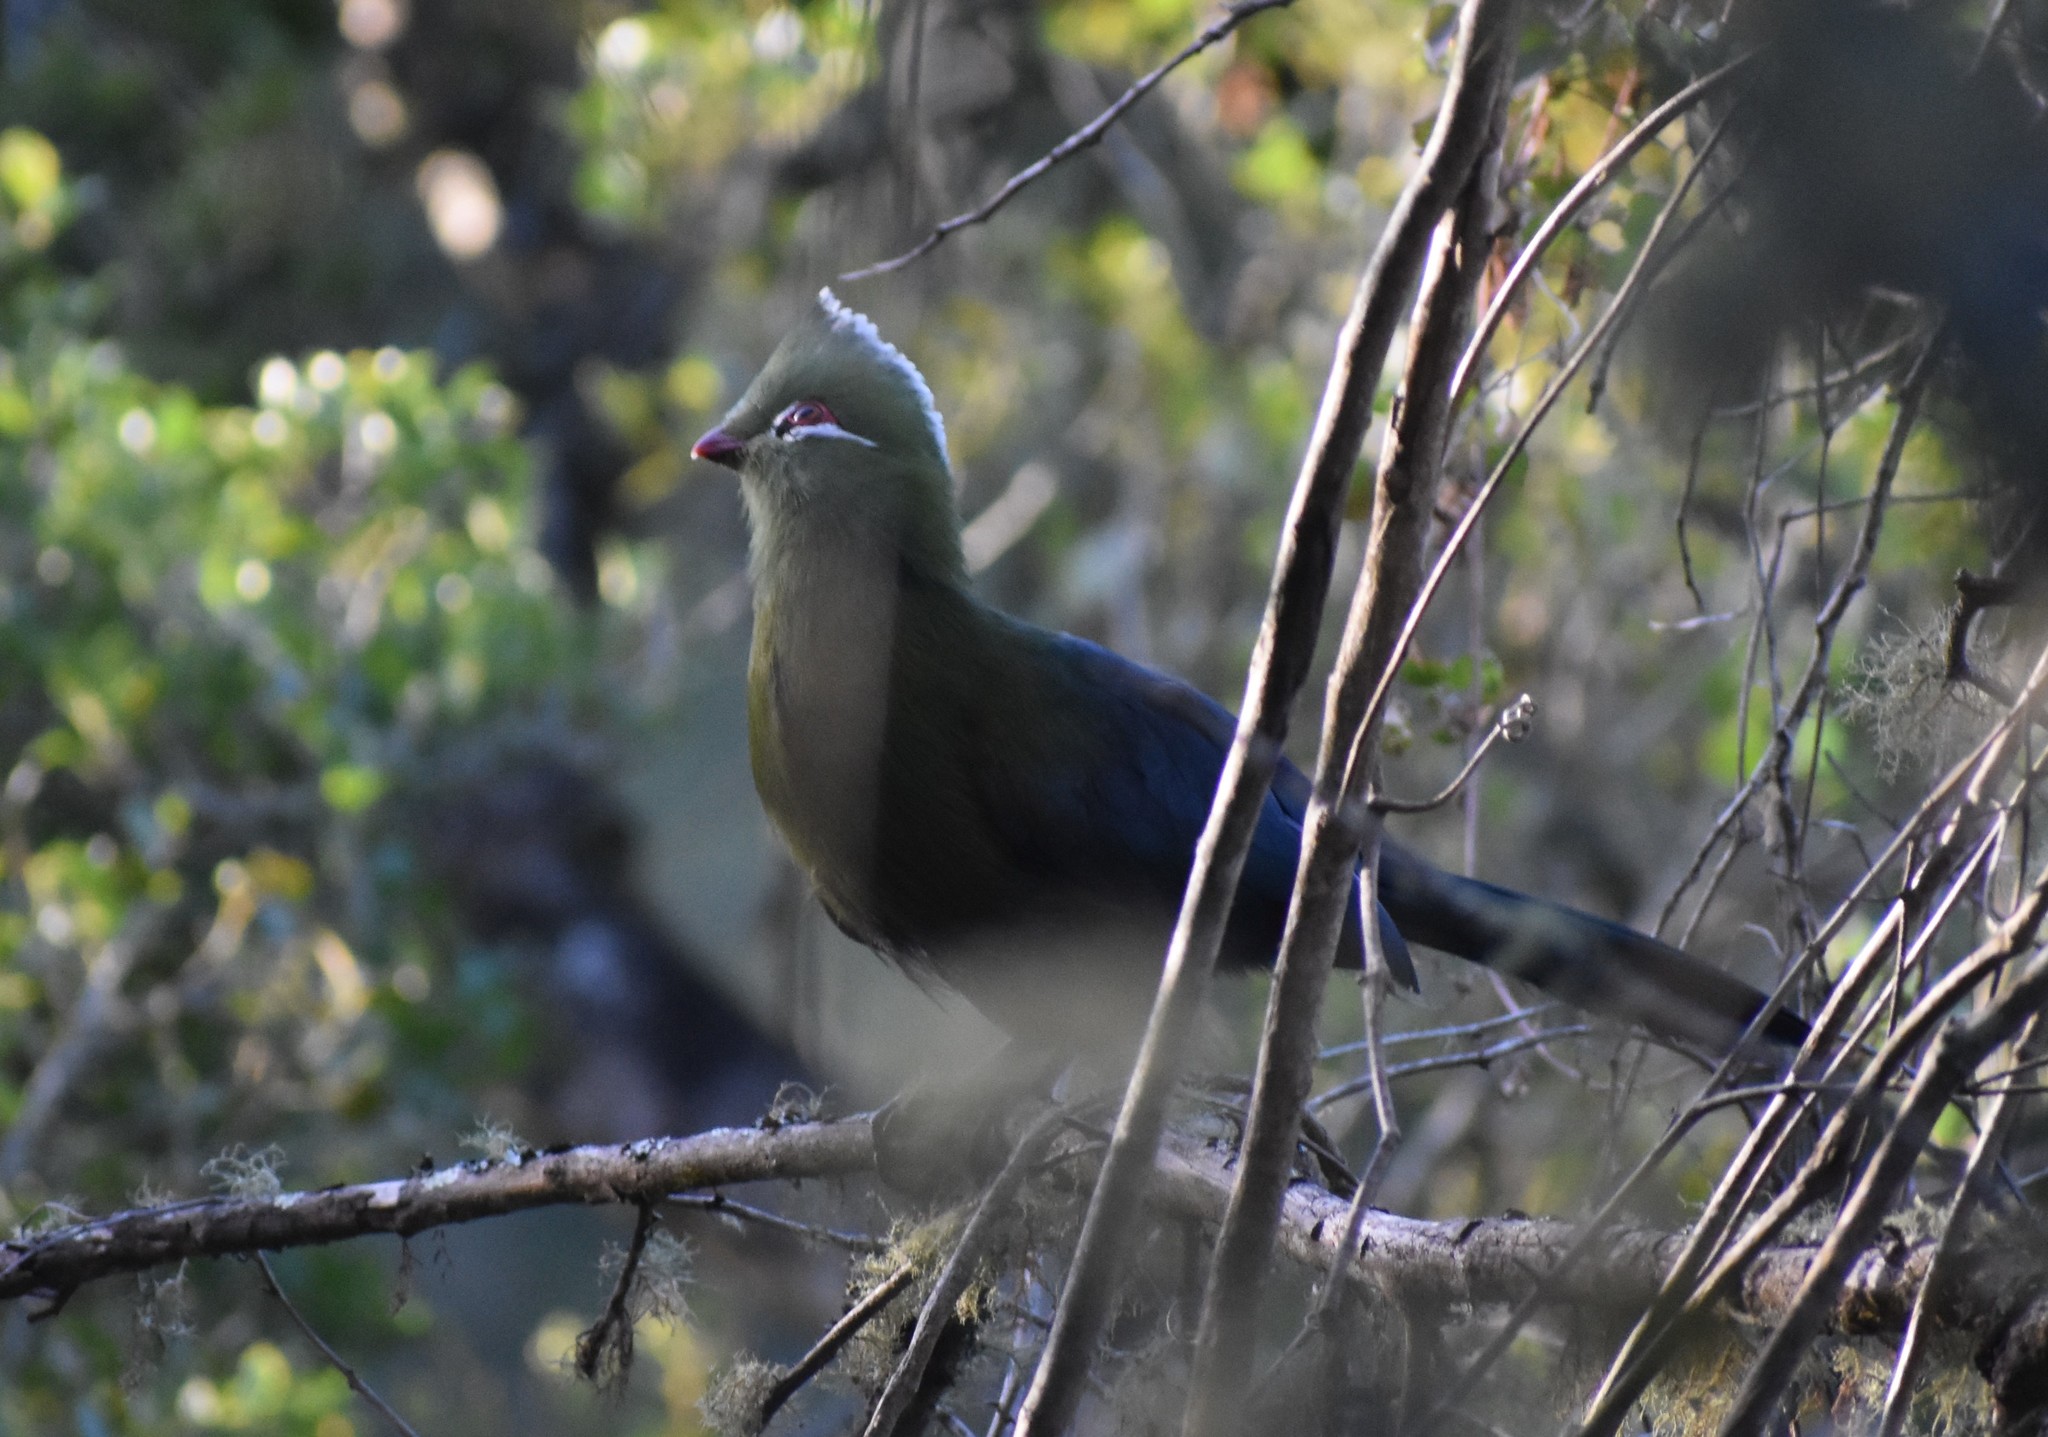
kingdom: Animalia
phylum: Chordata
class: Aves
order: Musophagiformes
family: Musophagidae
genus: Tauraco
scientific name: Tauraco corythaix
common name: Knysna turaco
